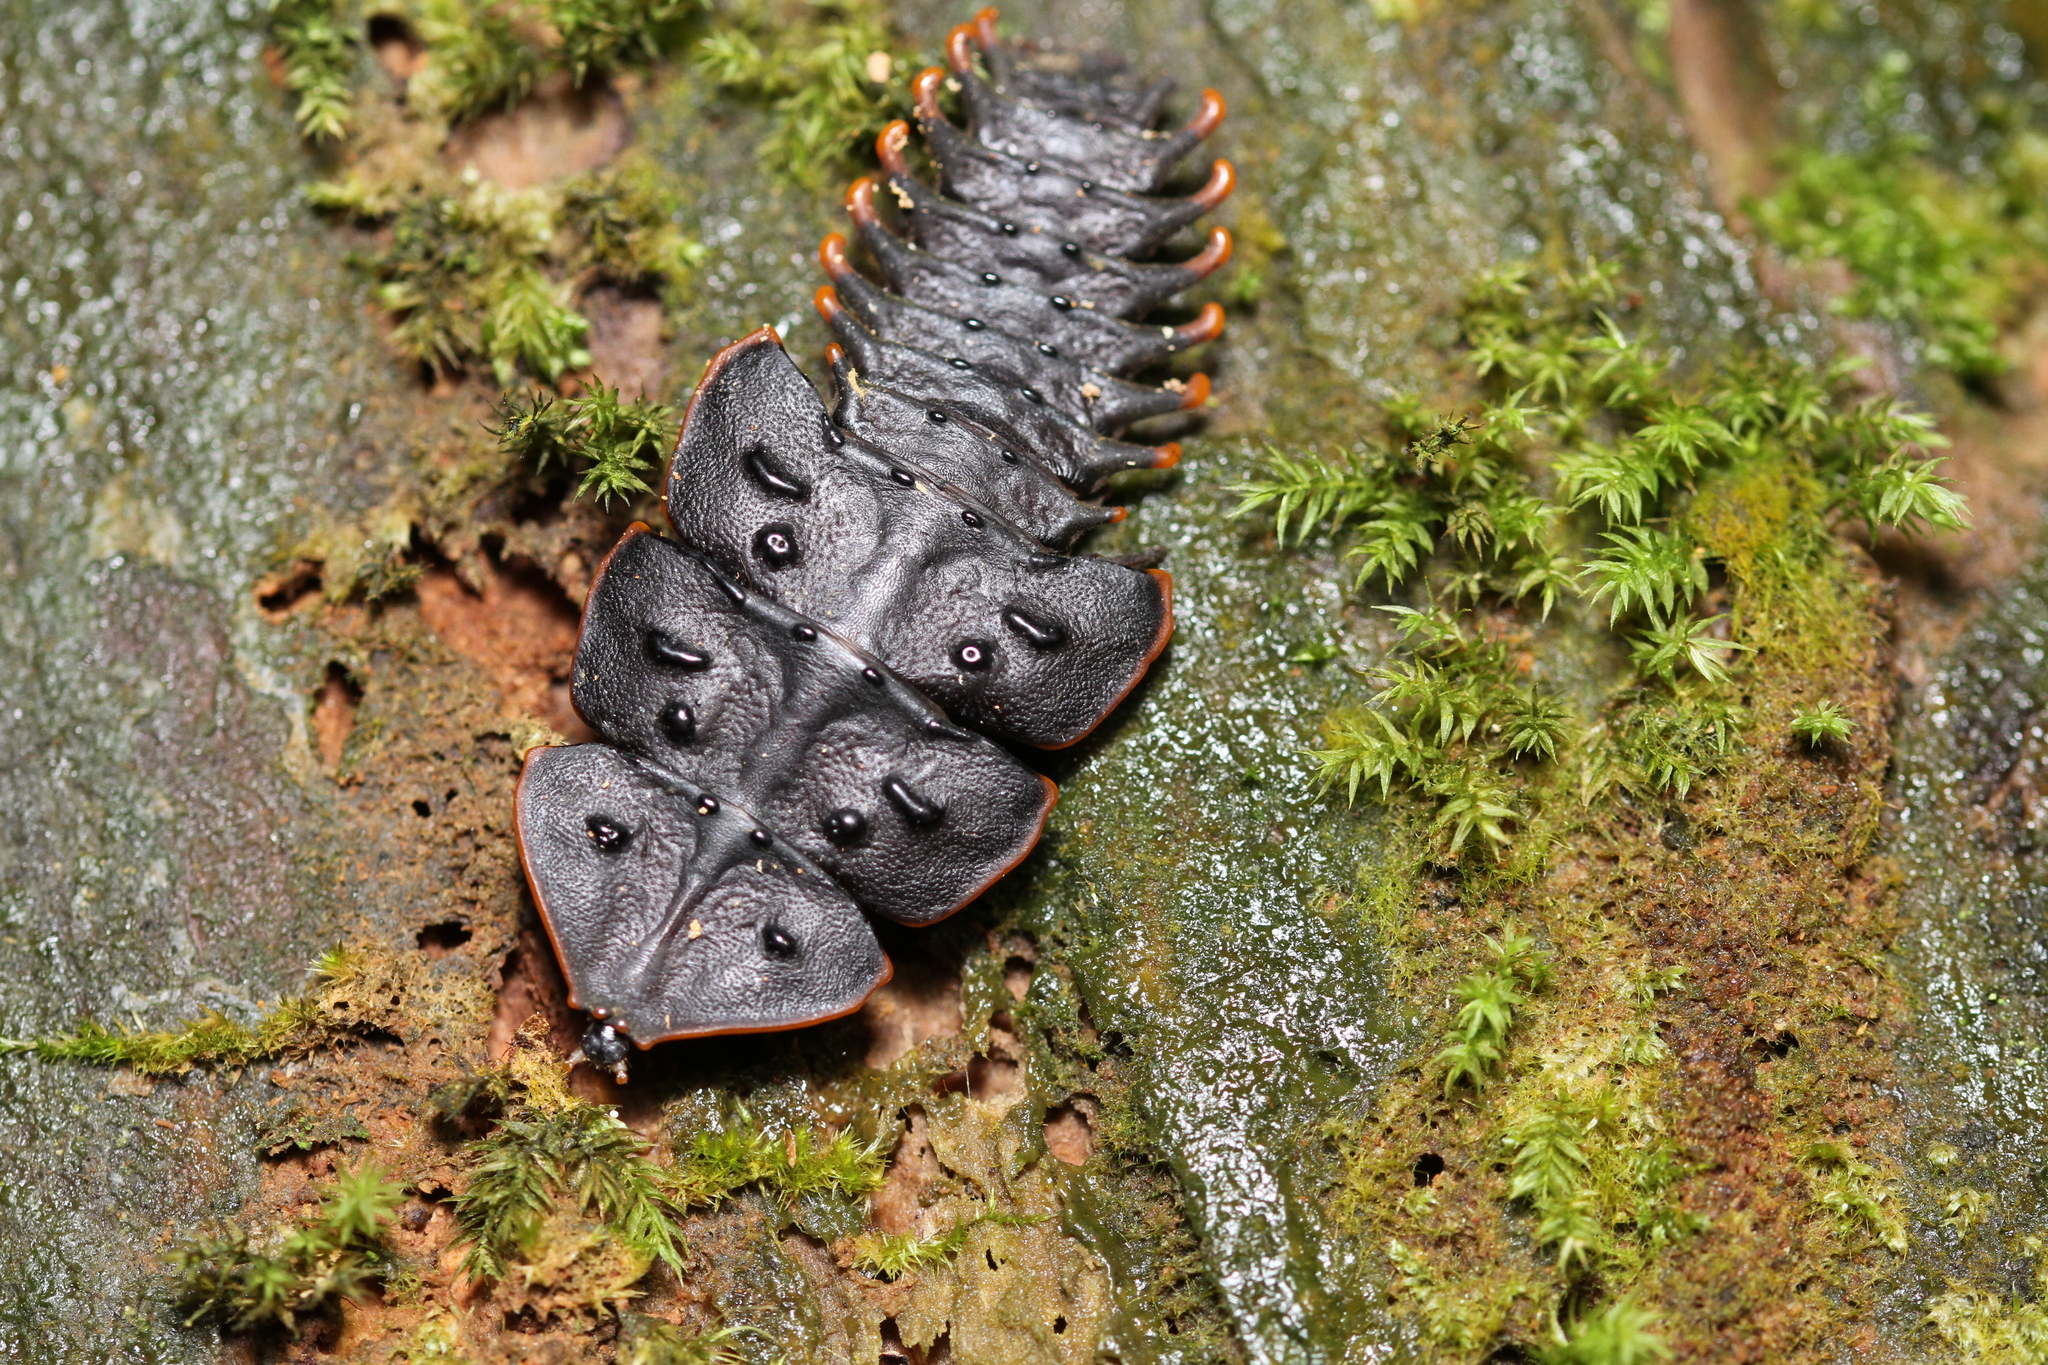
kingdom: Animalia
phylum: Arthropoda
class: Insecta
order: Coleoptera
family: Lycidae
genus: Platerodrilus
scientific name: Platerodrilus ruficollis
